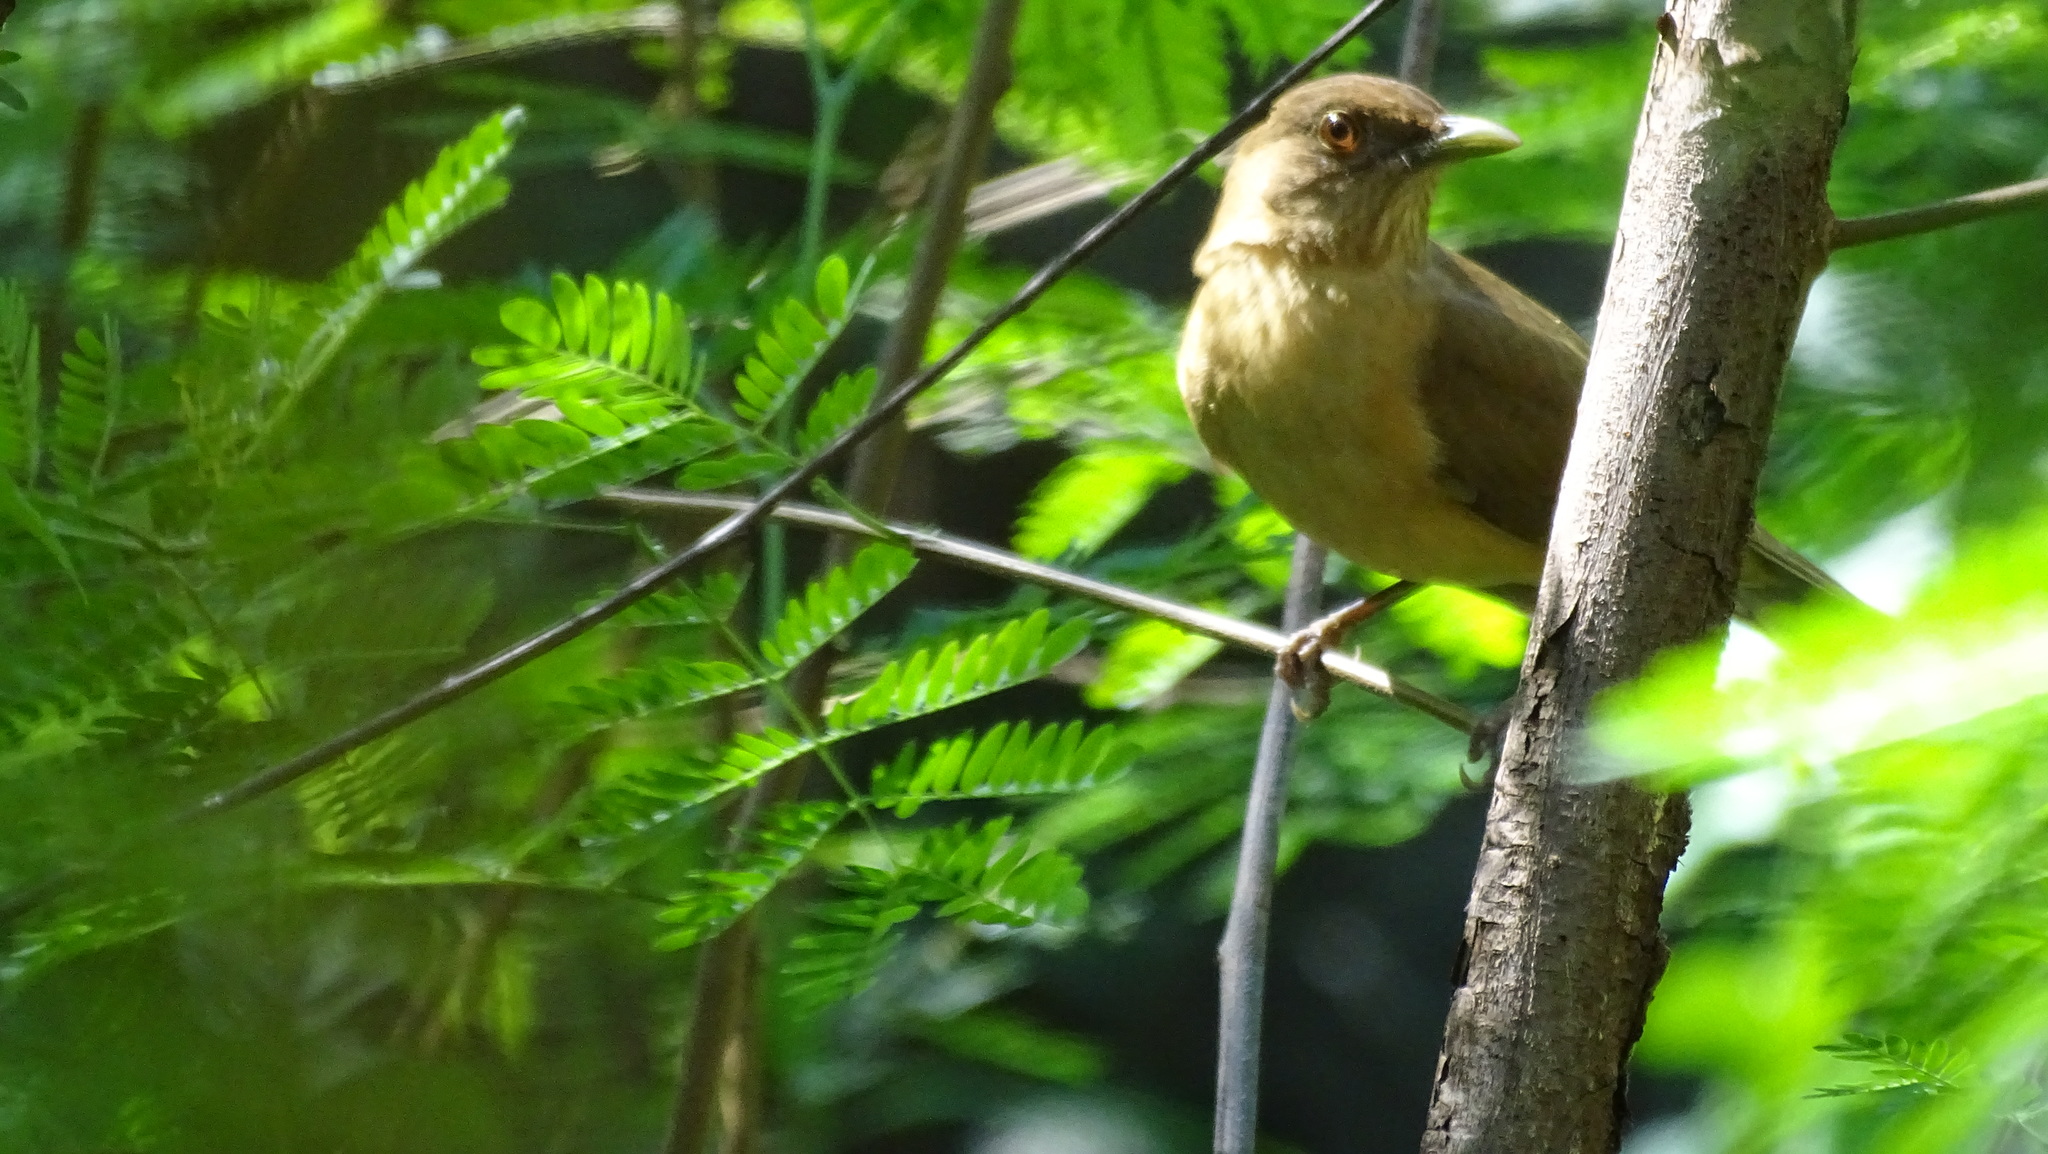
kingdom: Animalia
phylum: Chordata
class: Aves
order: Passeriformes
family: Turdidae
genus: Turdus
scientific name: Turdus grayi
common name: Clay-colored thrush
